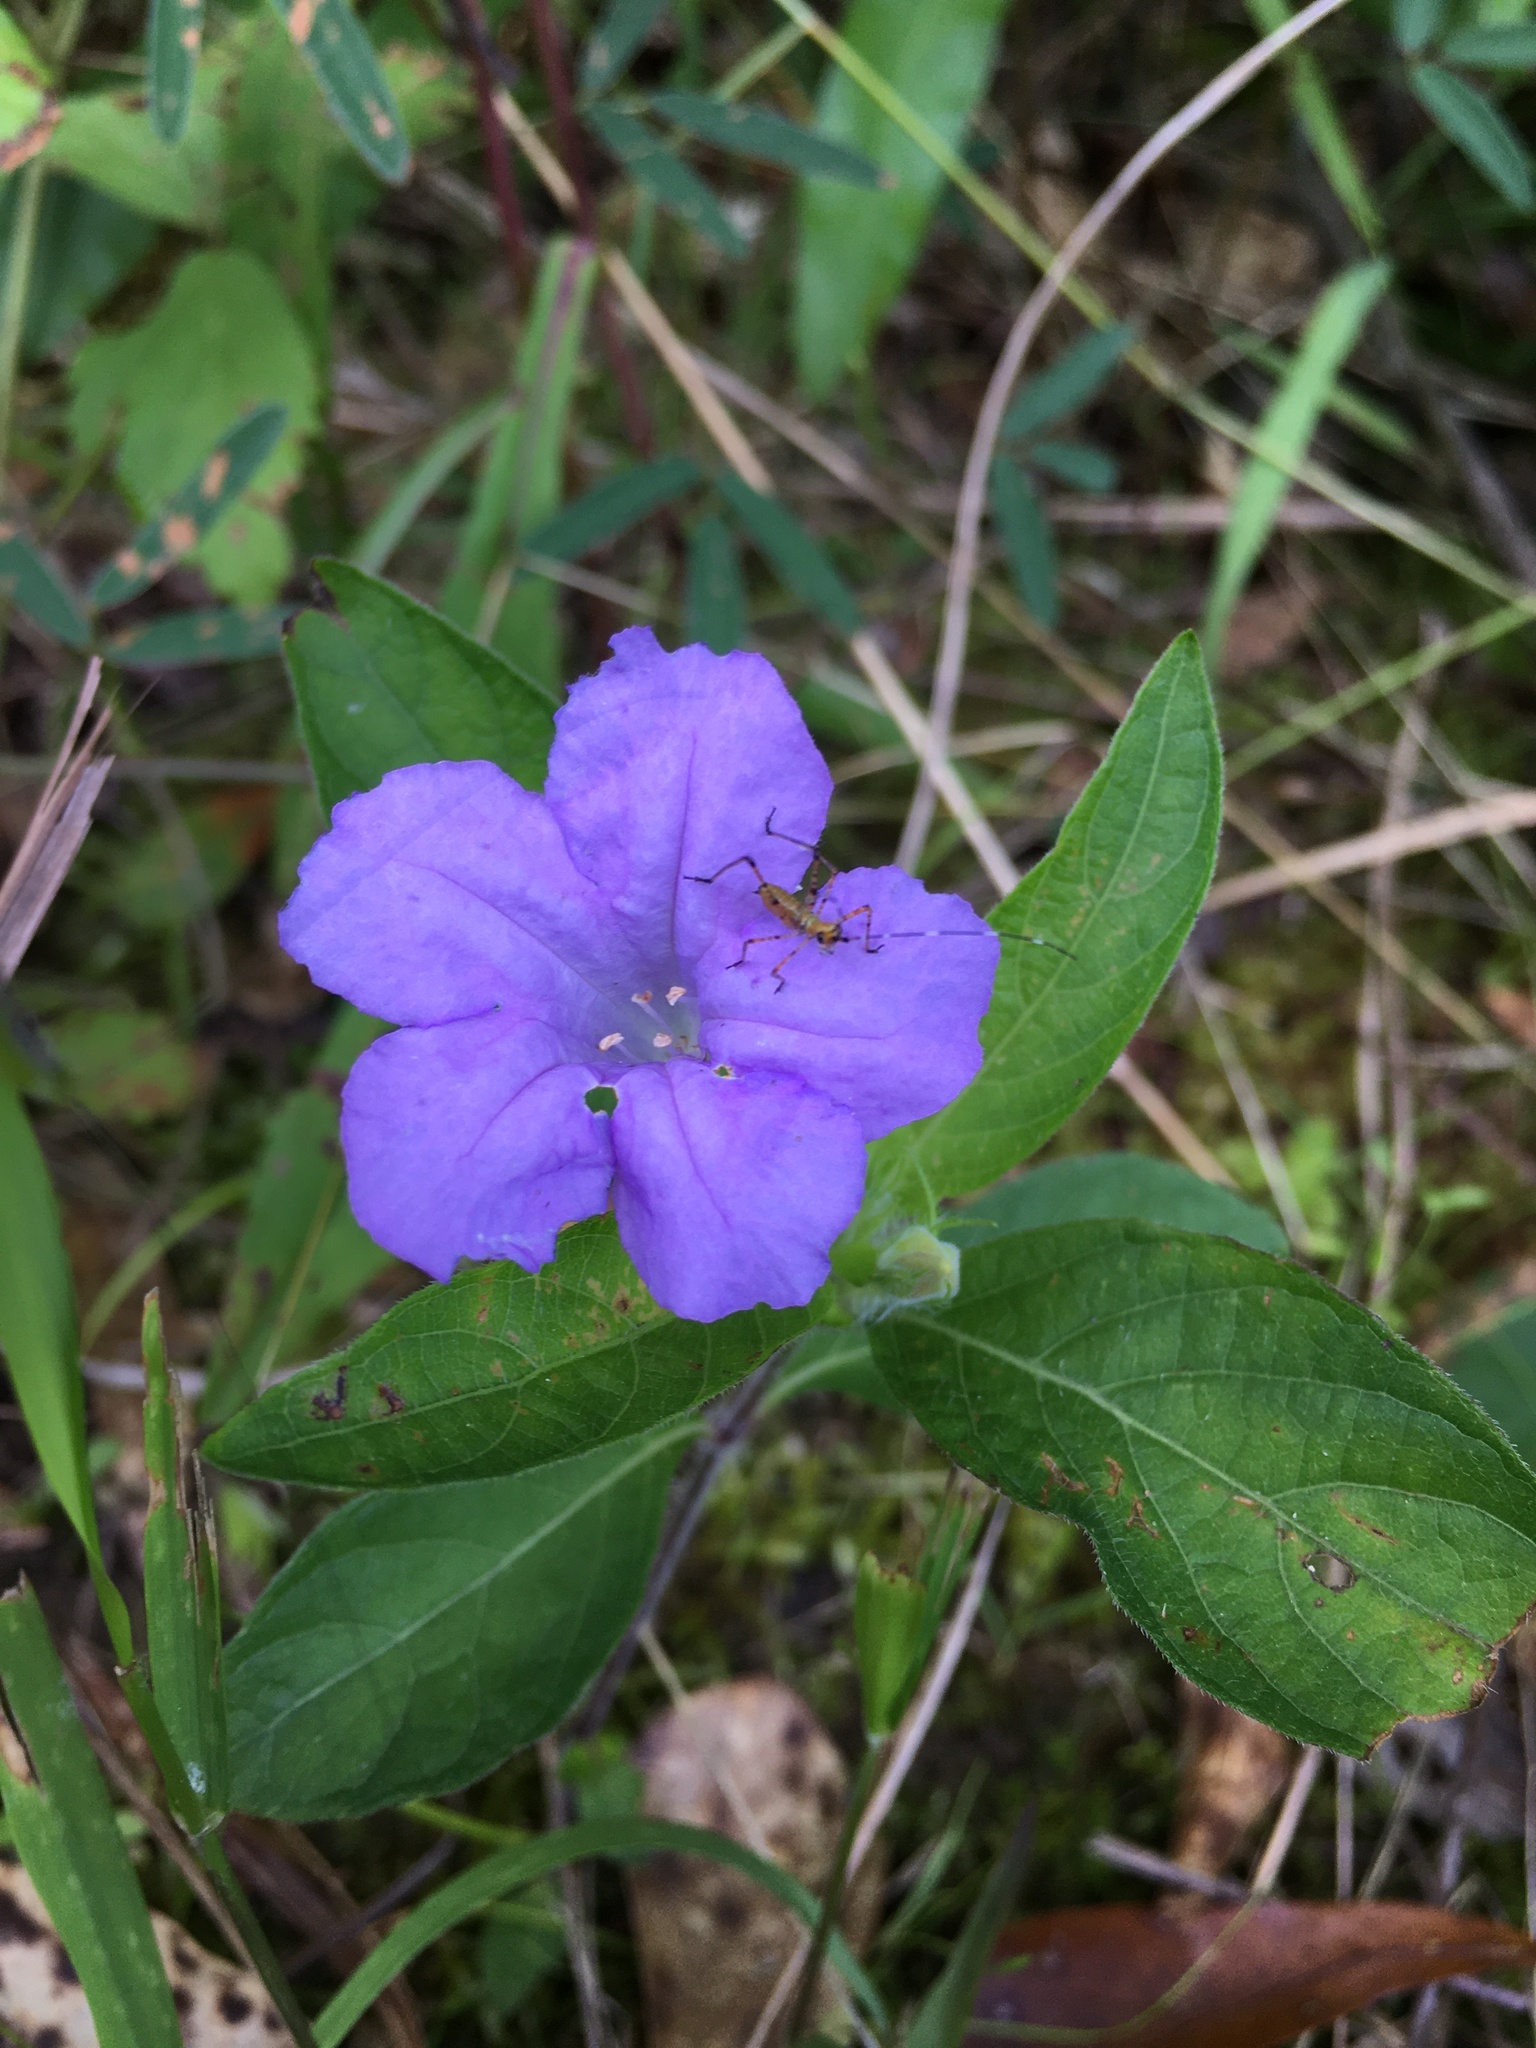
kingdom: Plantae
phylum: Tracheophyta
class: Magnoliopsida
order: Lamiales
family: Acanthaceae
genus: Ruellia
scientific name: Ruellia caroliniensis
